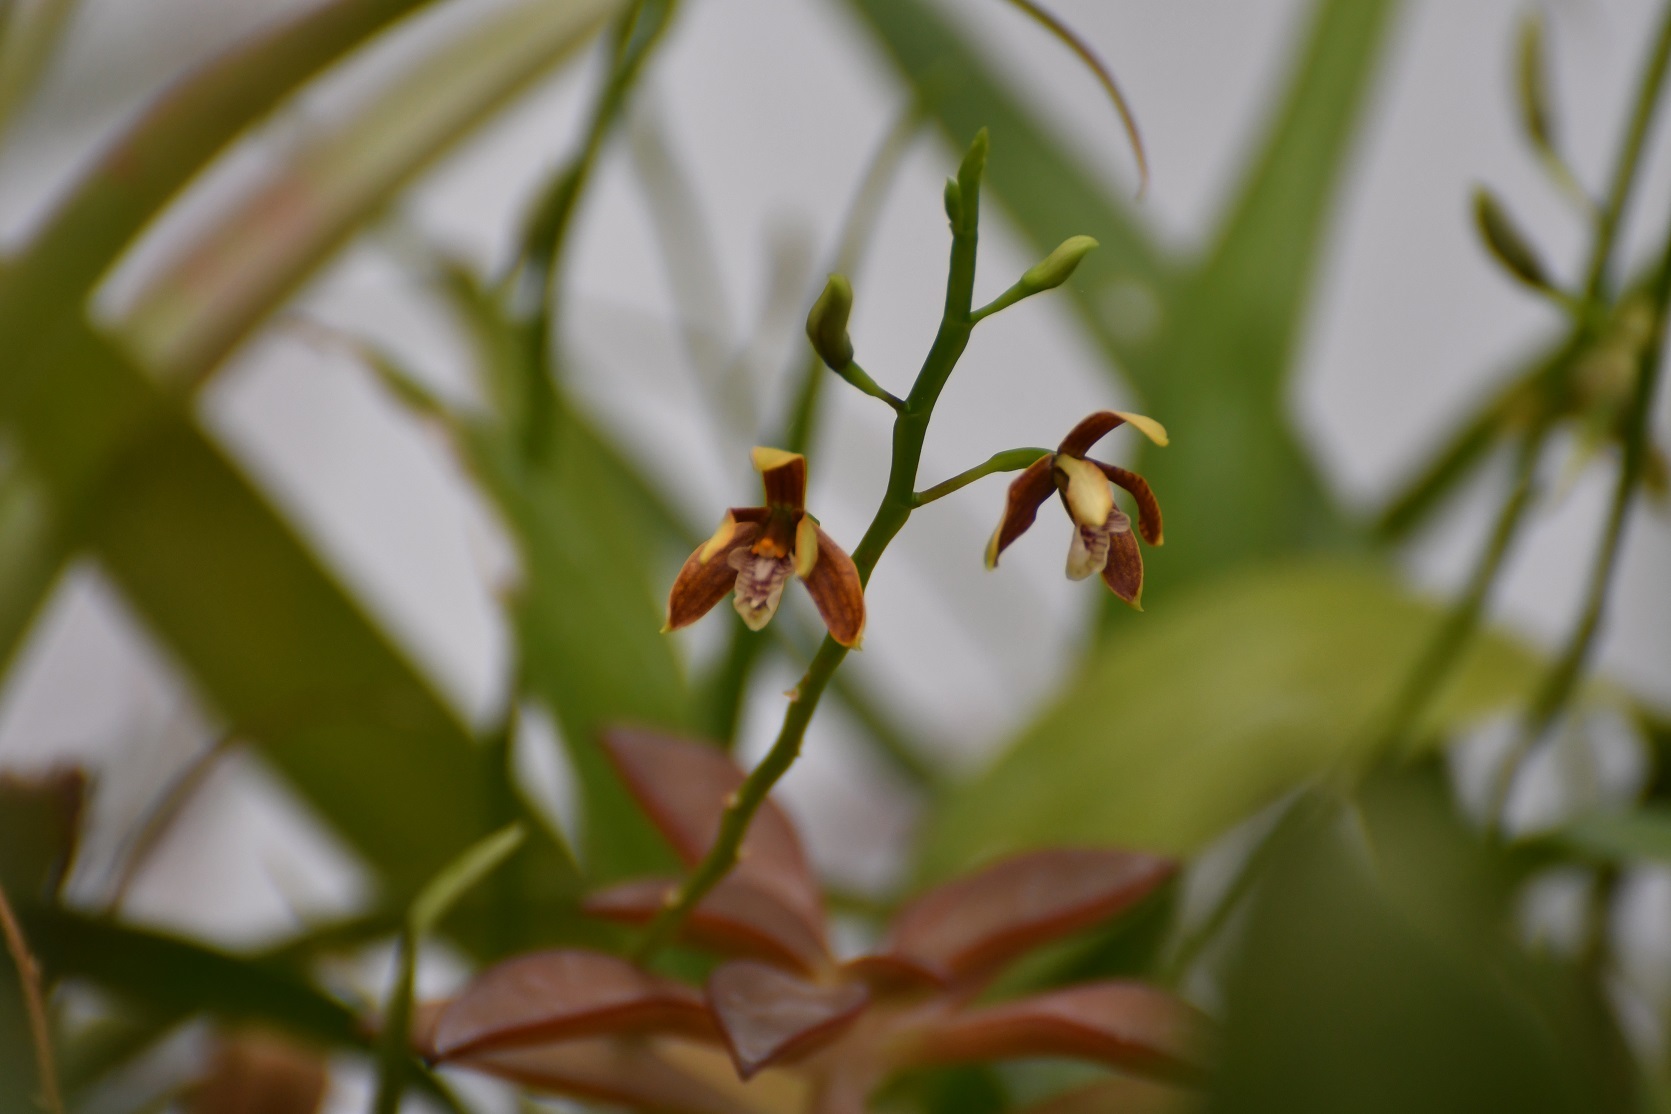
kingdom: Plantae
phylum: Tracheophyta
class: Liliopsida
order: Asparagales
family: Orchidaceae
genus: Prosthechea
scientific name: Prosthechea livida
